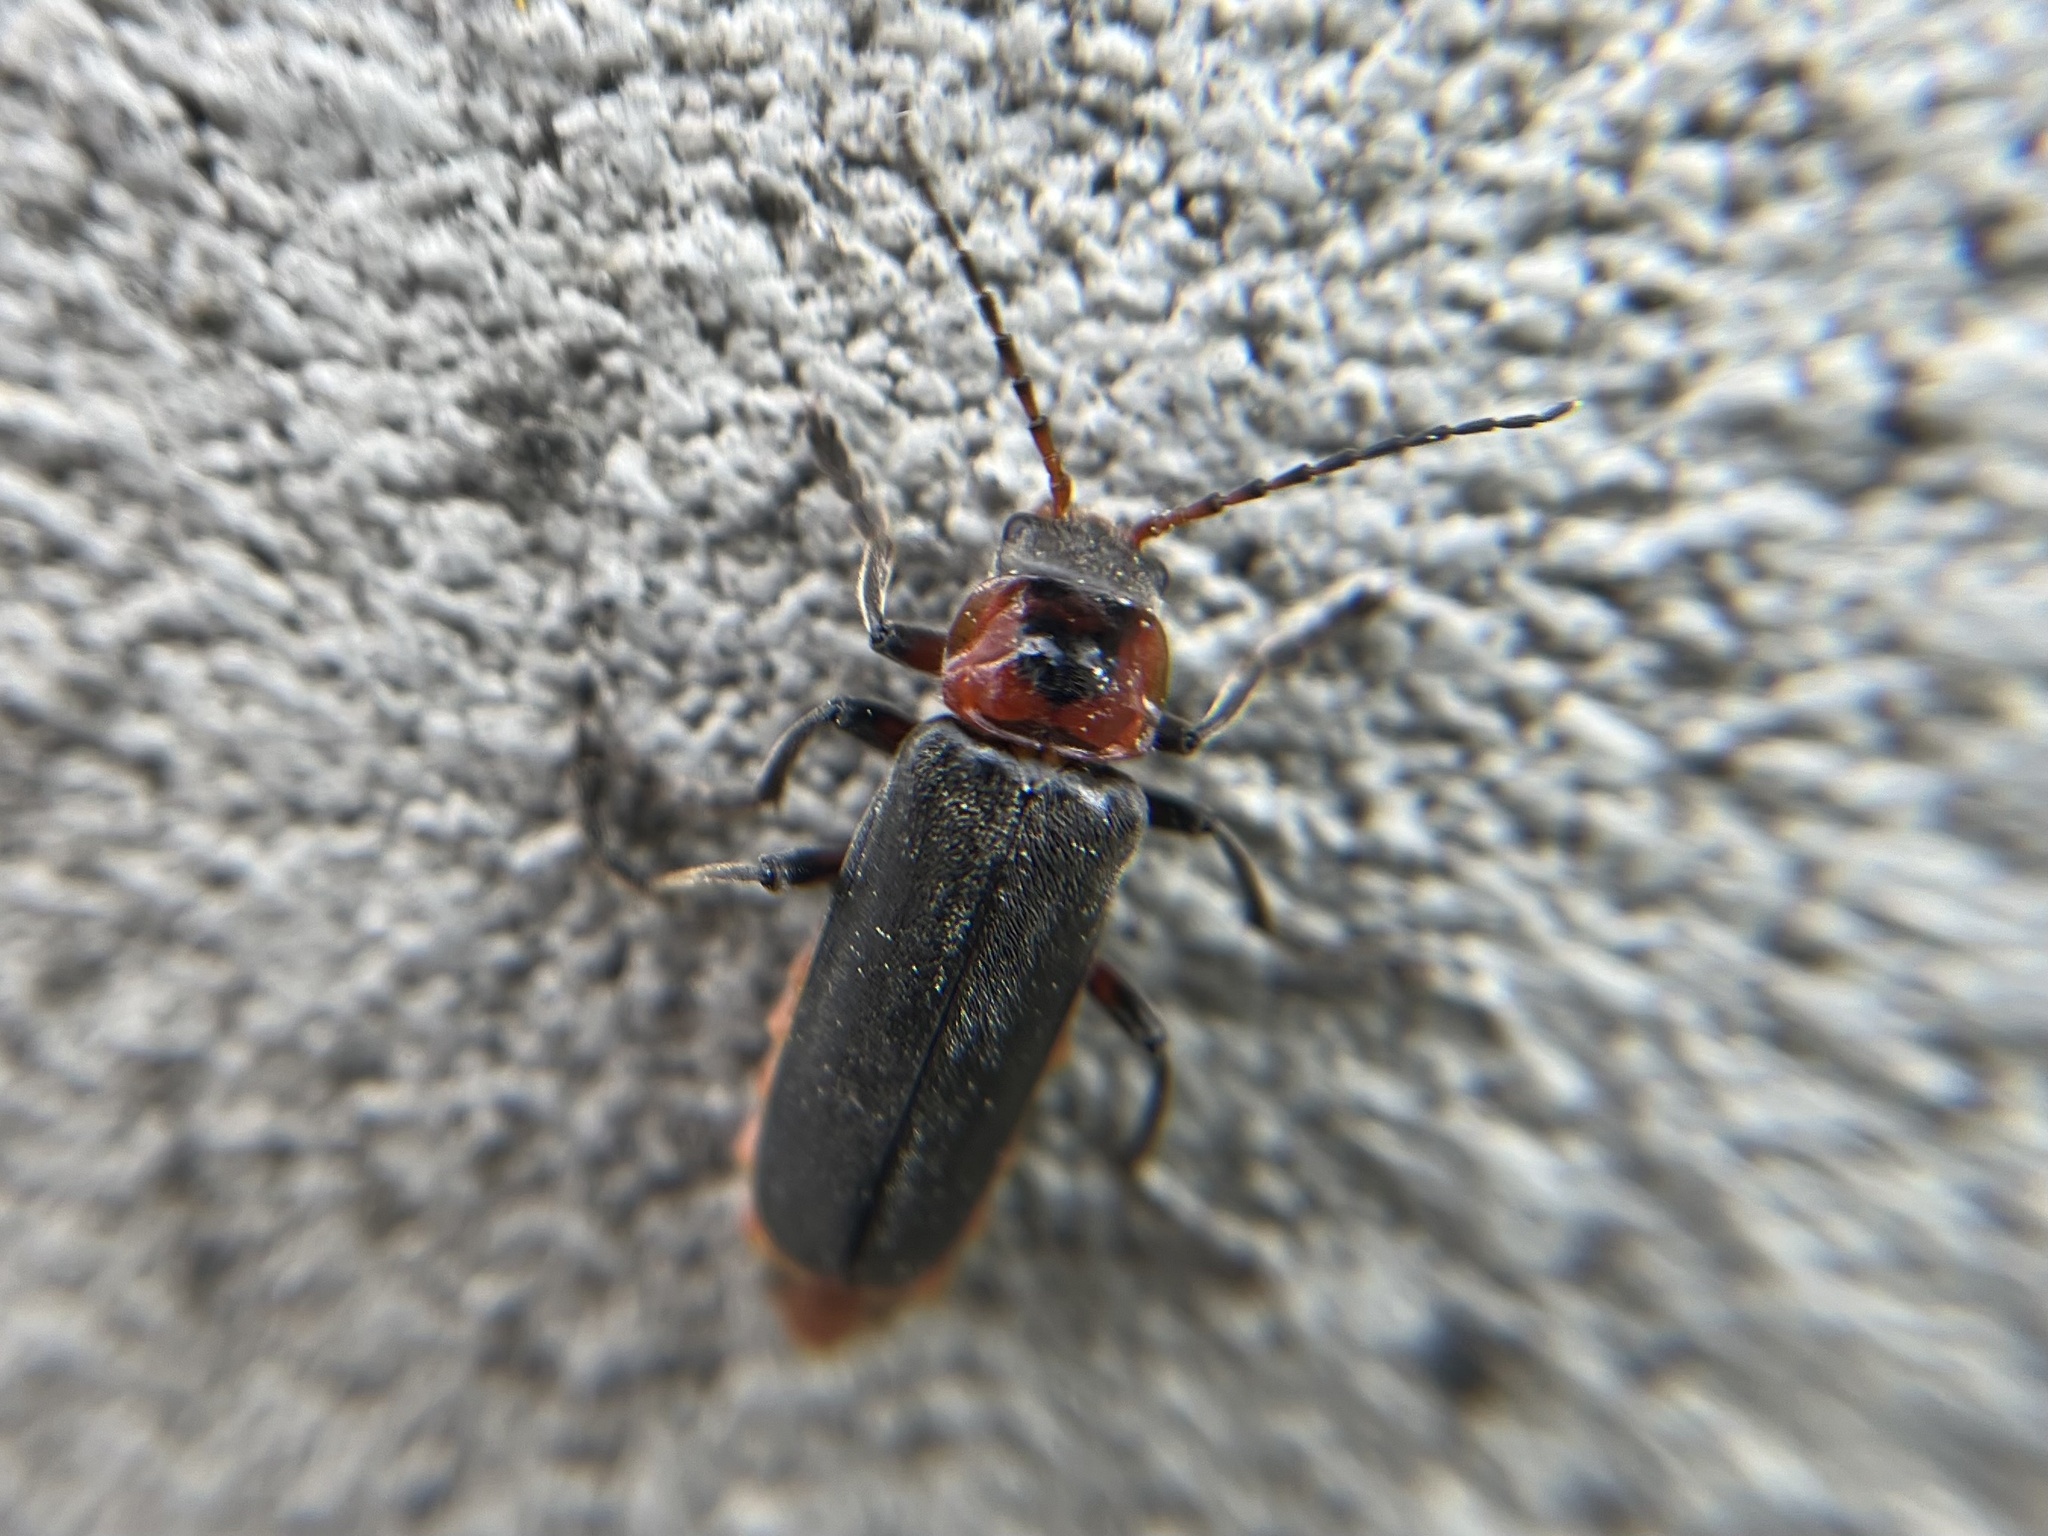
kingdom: Animalia
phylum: Arthropoda
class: Insecta
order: Coleoptera
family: Cantharidae
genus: Cantharis
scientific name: Cantharis rustica
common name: Soldier beetle
